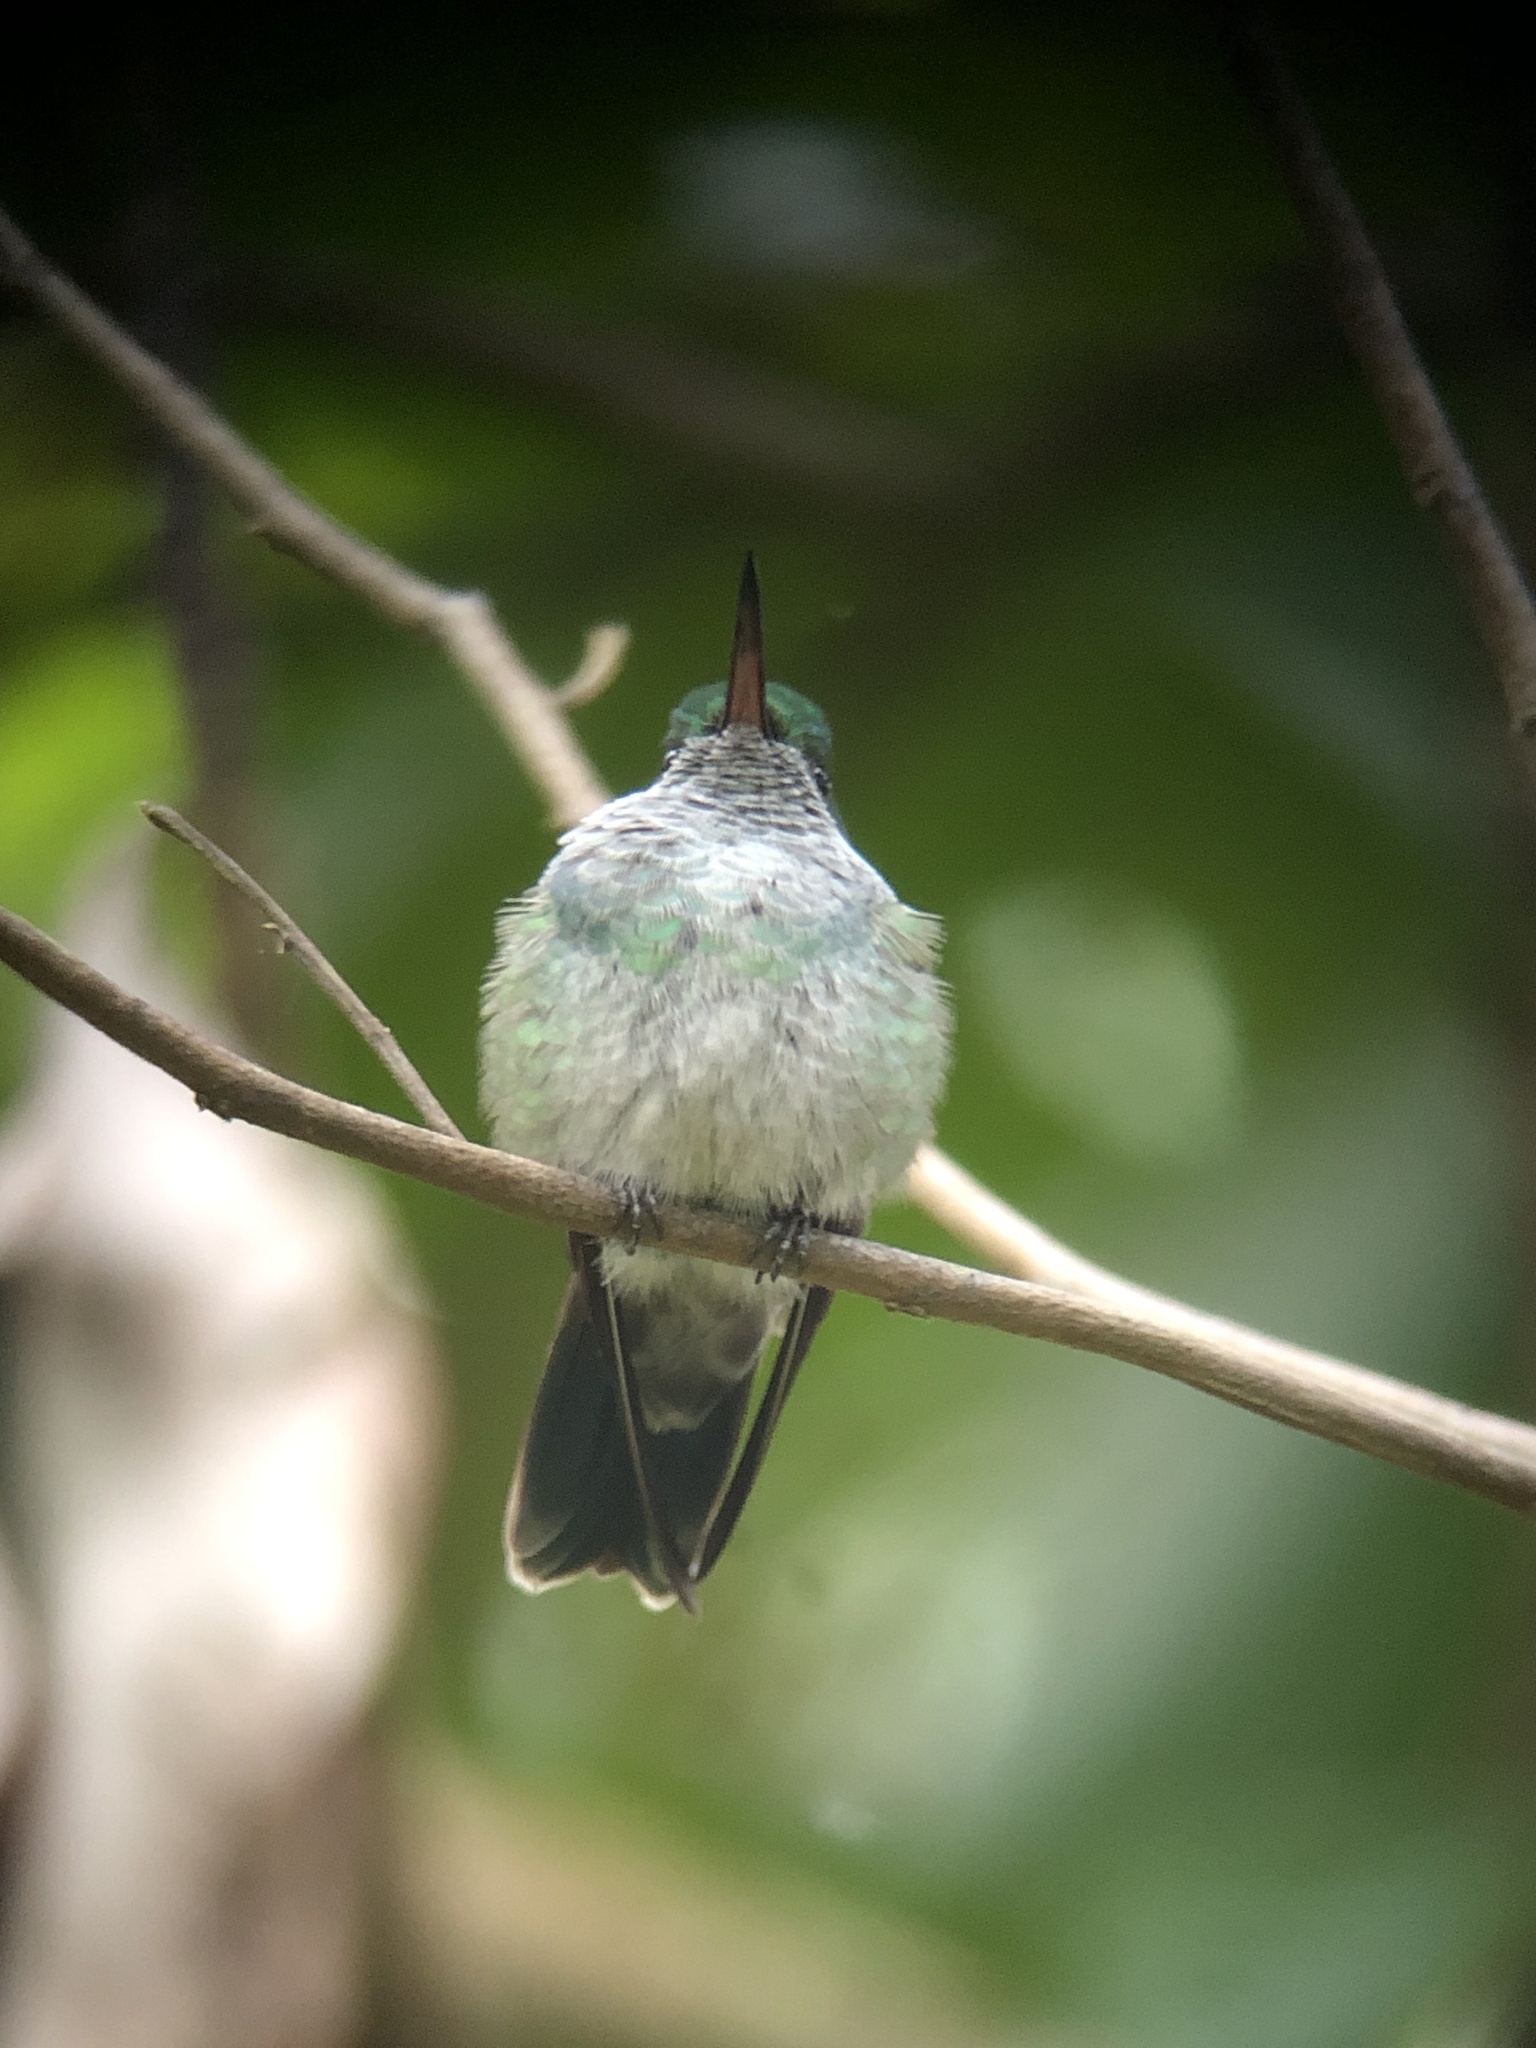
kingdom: Animalia
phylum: Chordata
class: Aves
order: Apodiformes
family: Trochilidae
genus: Polyerata
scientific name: Polyerata amabilis
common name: Blue-chested hummingbird
